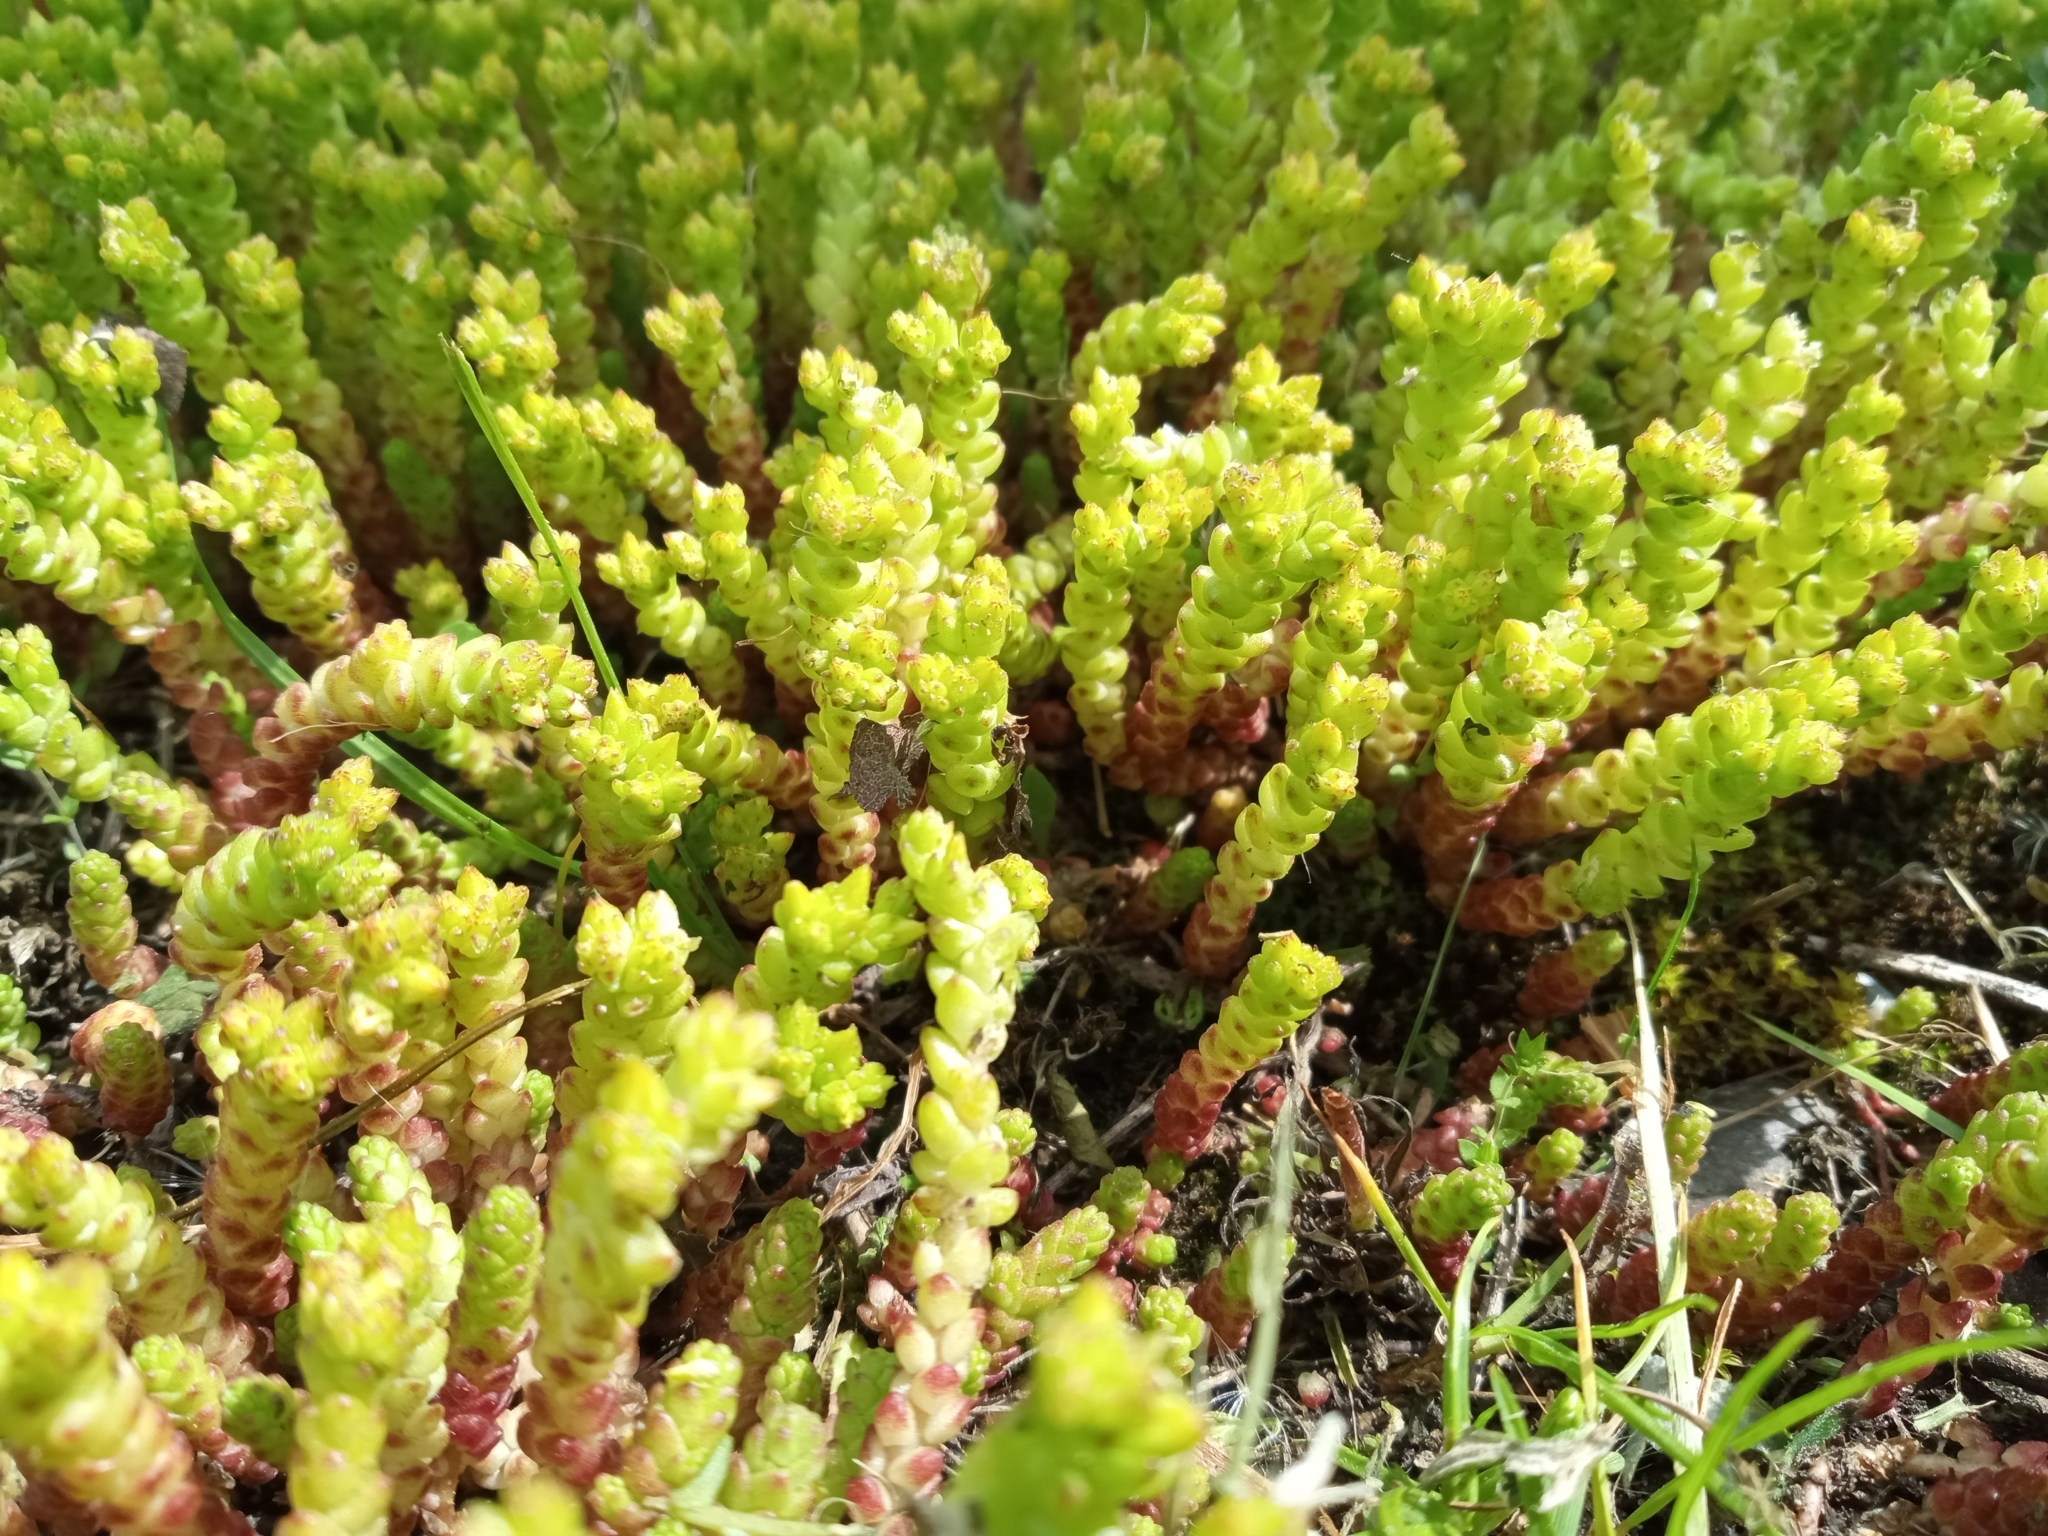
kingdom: Plantae
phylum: Tracheophyta
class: Magnoliopsida
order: Saxifragales
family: Crassulaceae
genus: Sedum
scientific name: Sedum acre
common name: Biting stonecrop
